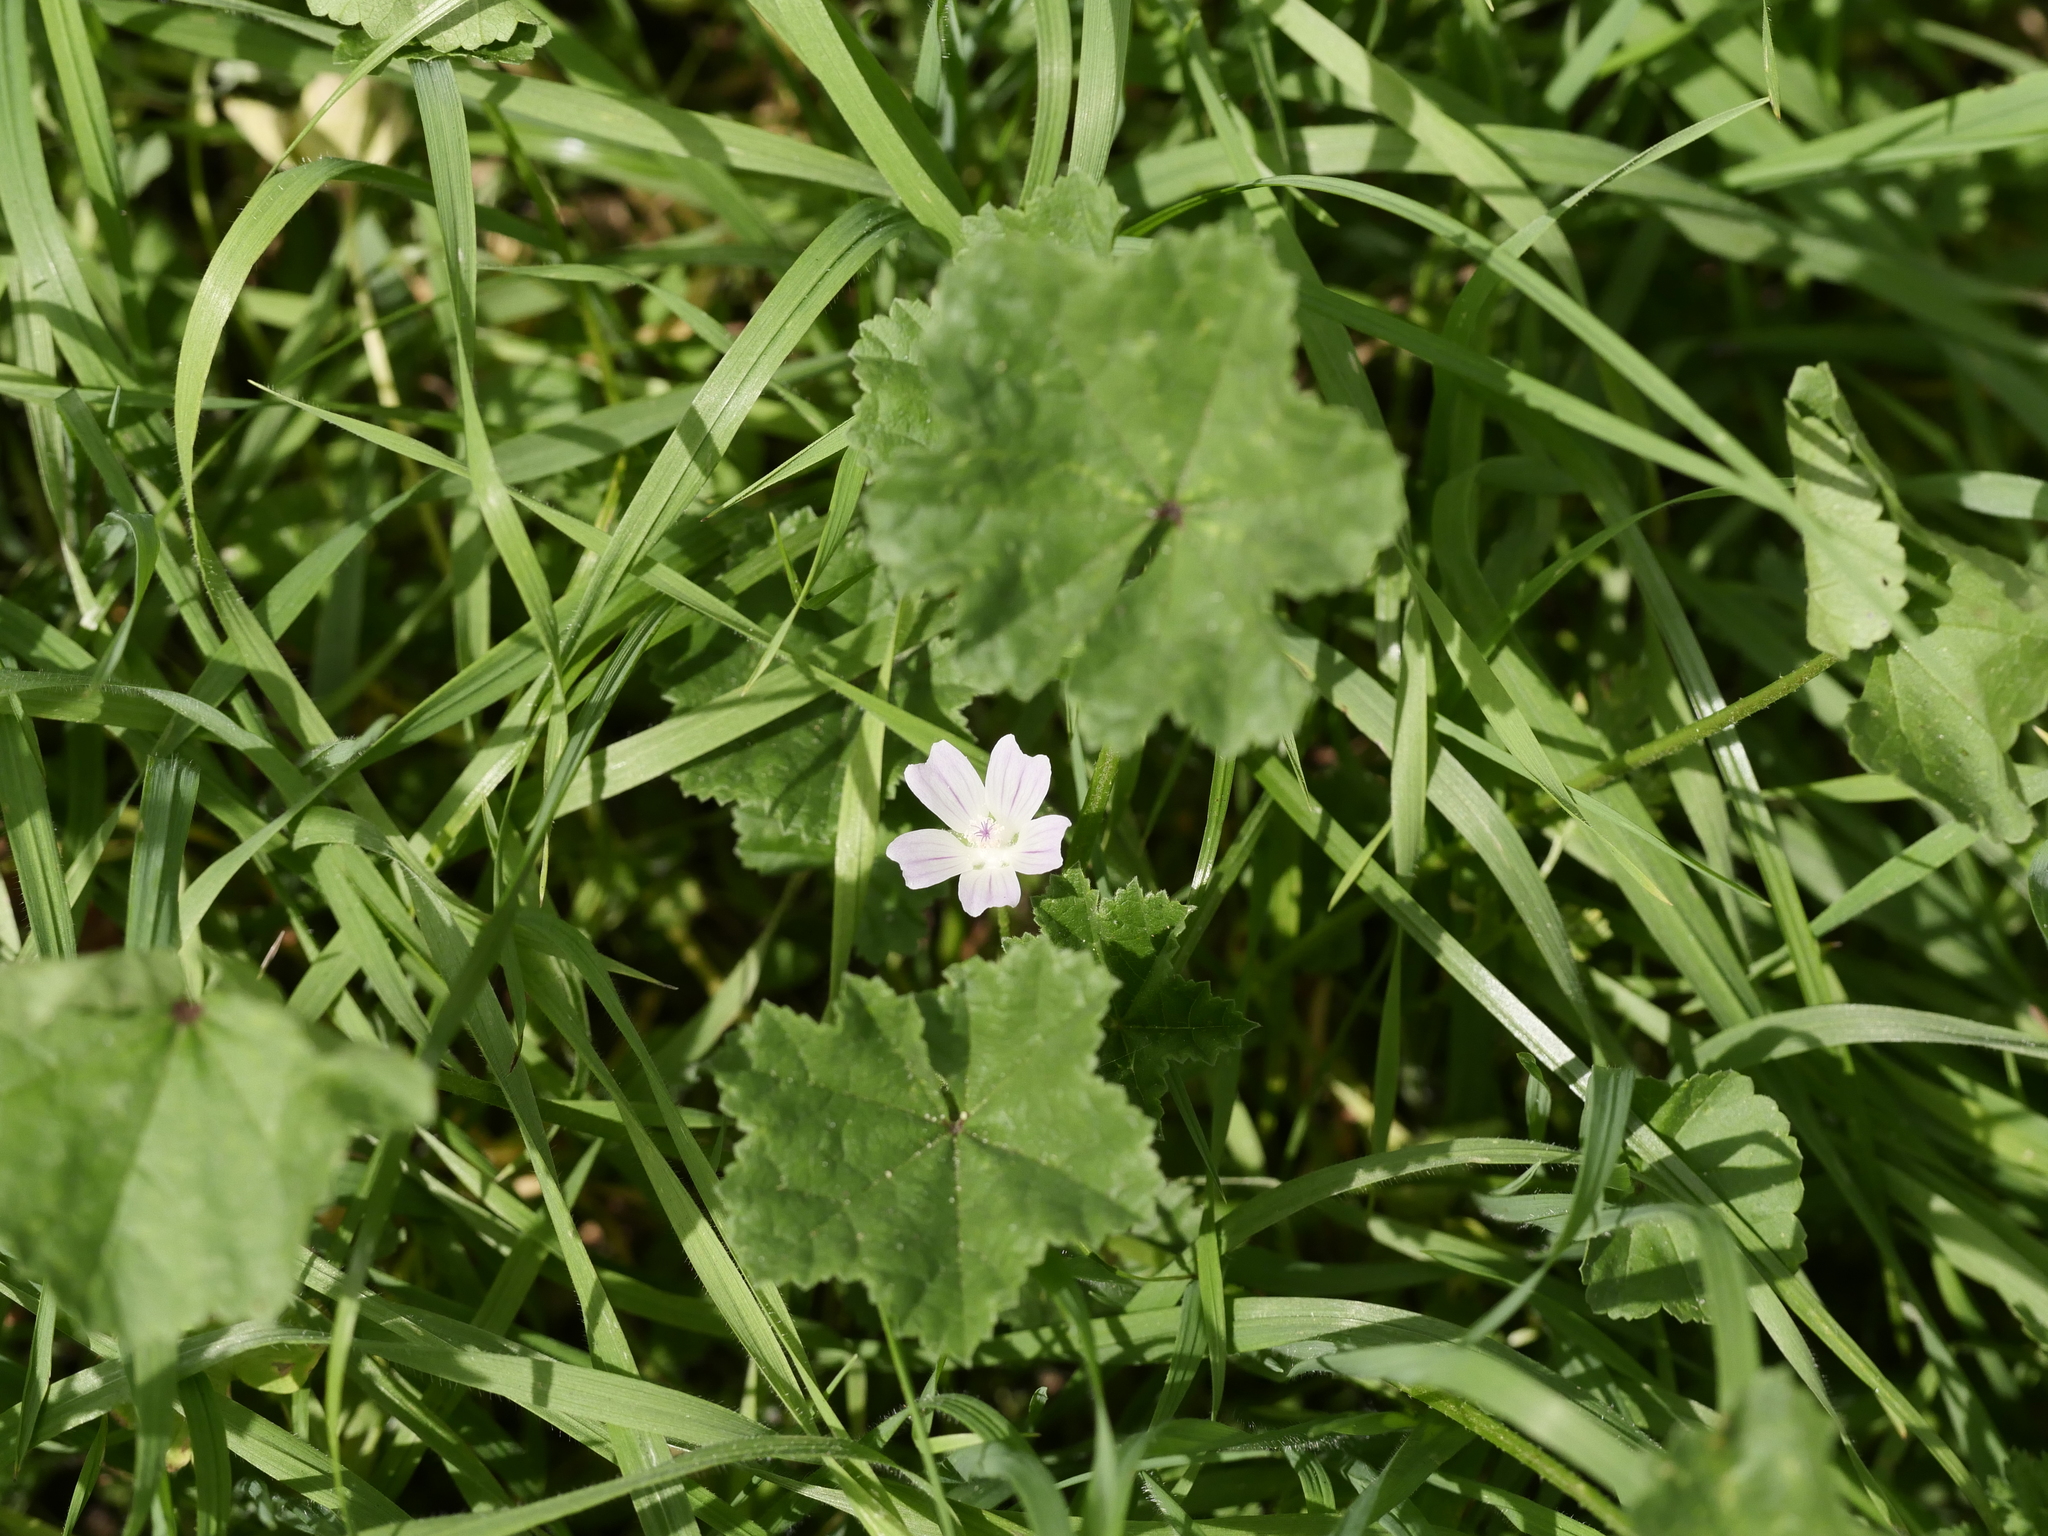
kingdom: Plantae
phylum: Tracheophyta
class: Magnoliopsida
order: Malvales
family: Malvaceae
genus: Malva
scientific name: Malva neglecta
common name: Common mallow
